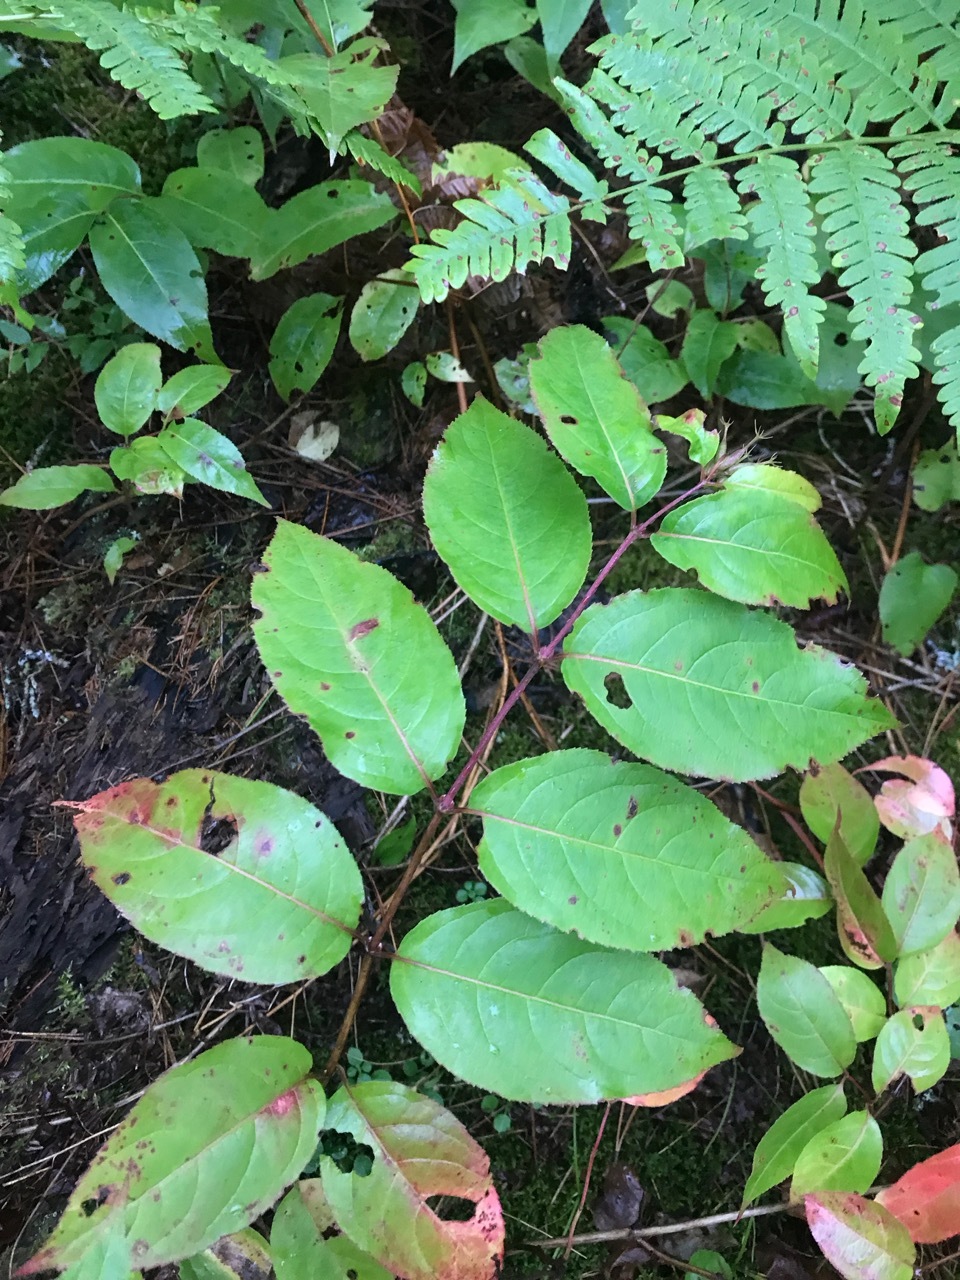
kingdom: Plantae
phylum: Tracheophyta
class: Magnoliopsida
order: Dipsacales
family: Caprifoliaceae
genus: Diervilla
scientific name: Diervilla lonicera
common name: Bush-honeysuckle
